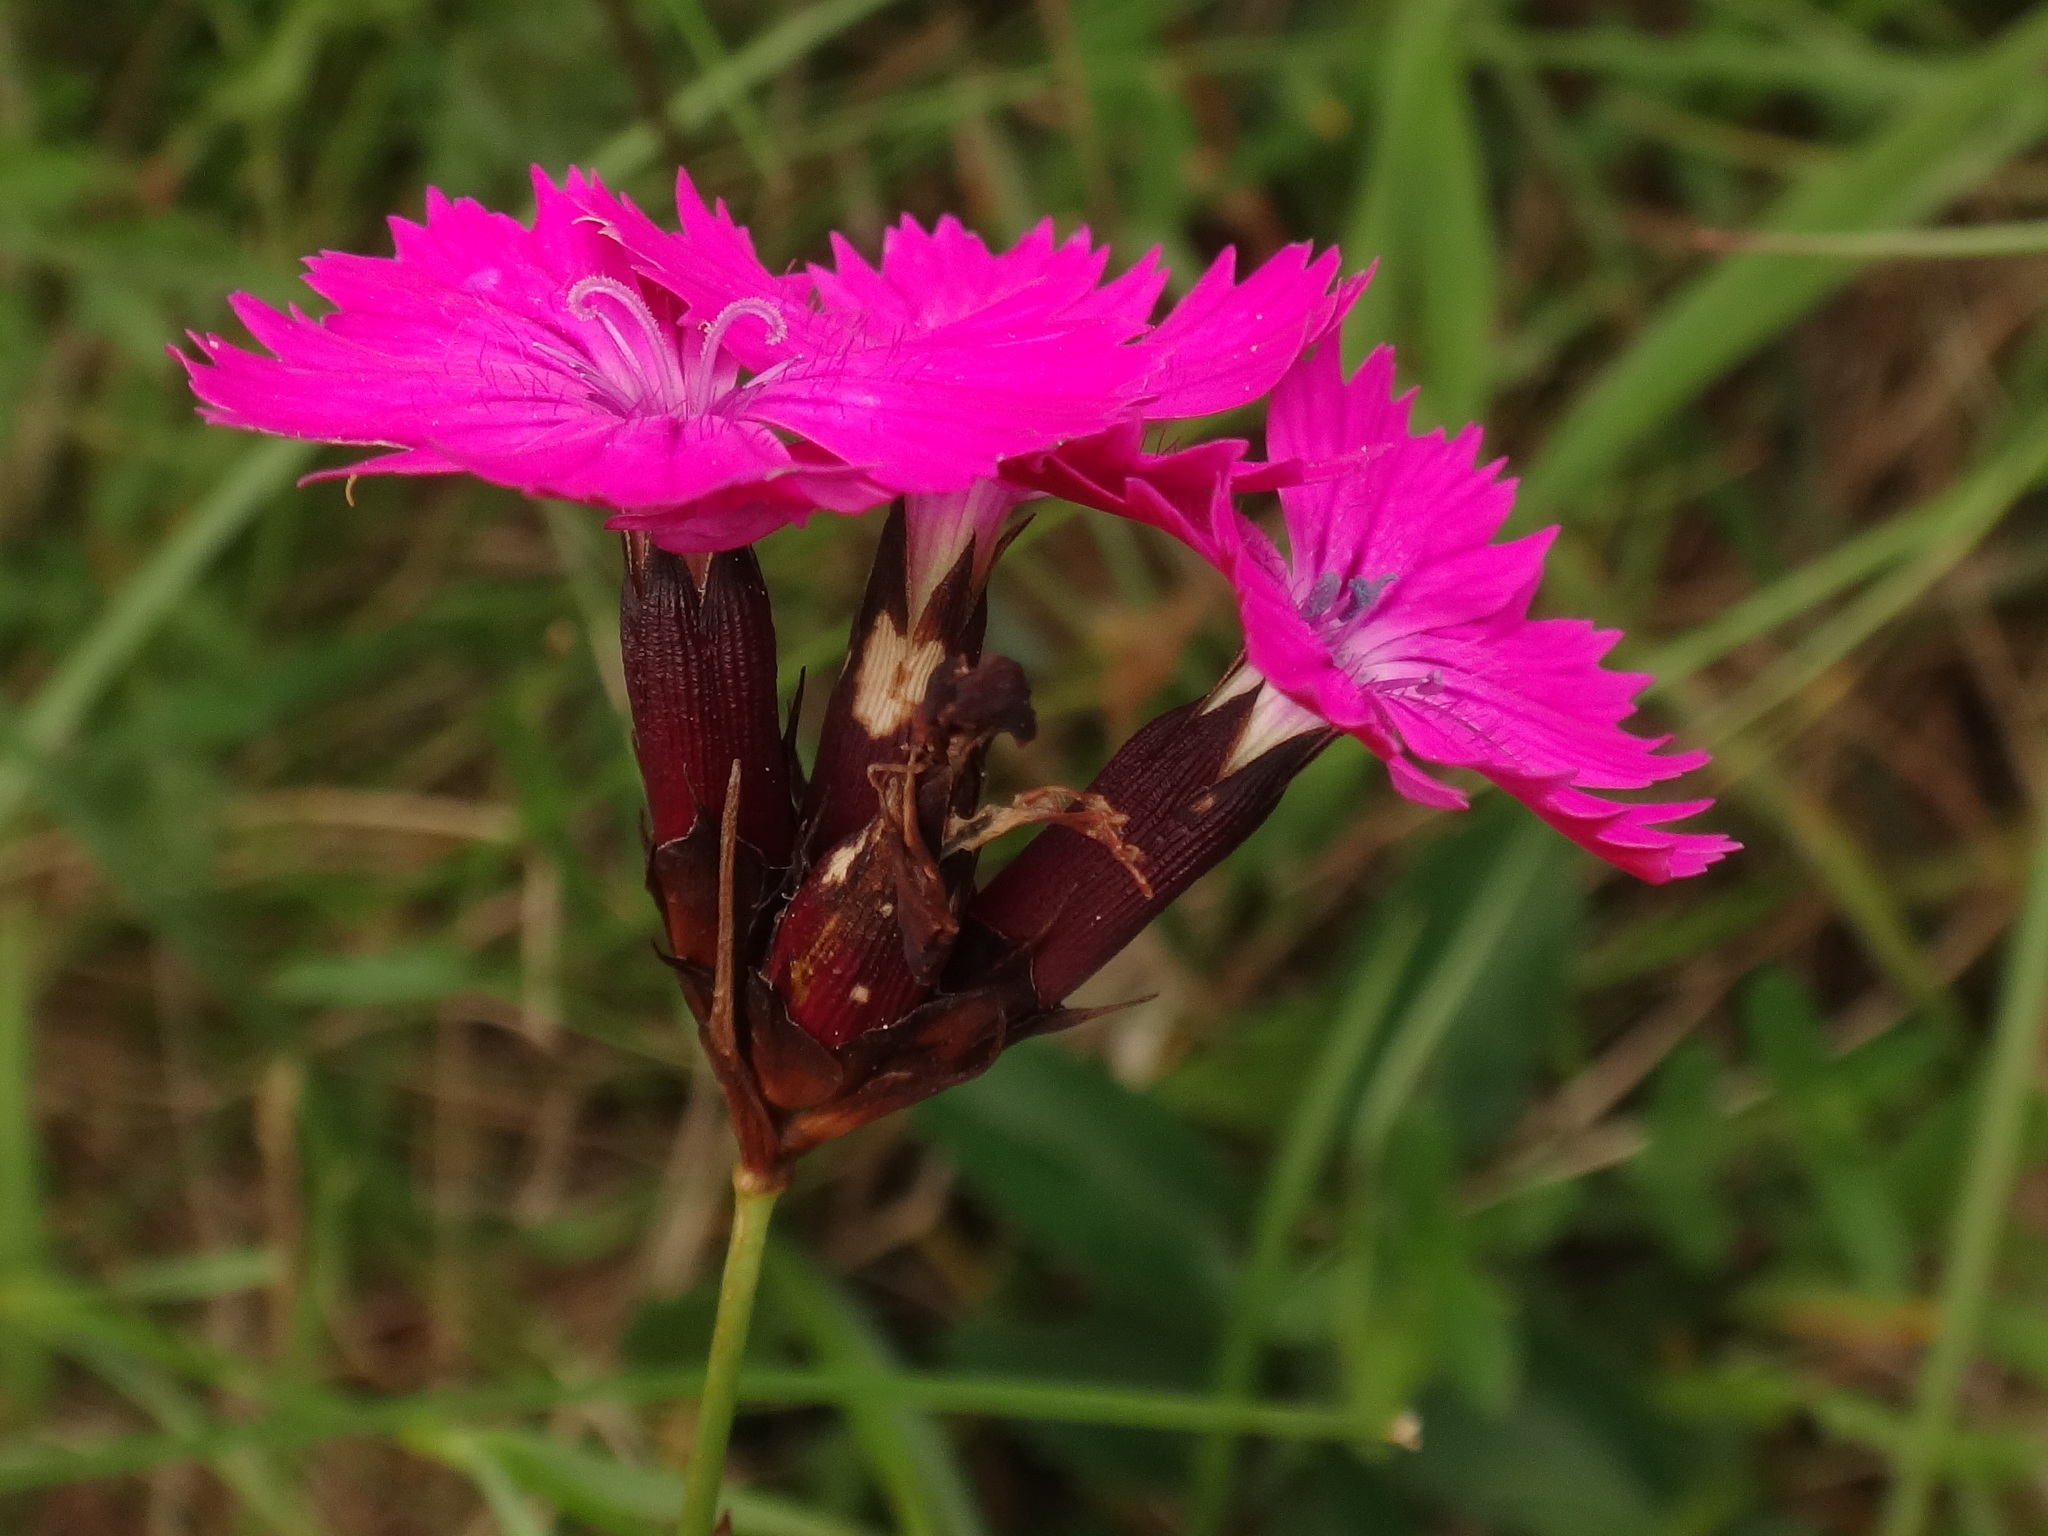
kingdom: Plantae
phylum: Tracheophyta
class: Magnoliopsida
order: Caryophyllales
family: Caryophyllaceae
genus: Dianthus
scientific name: Dianthus carthusianorum
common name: Carthusian pink
